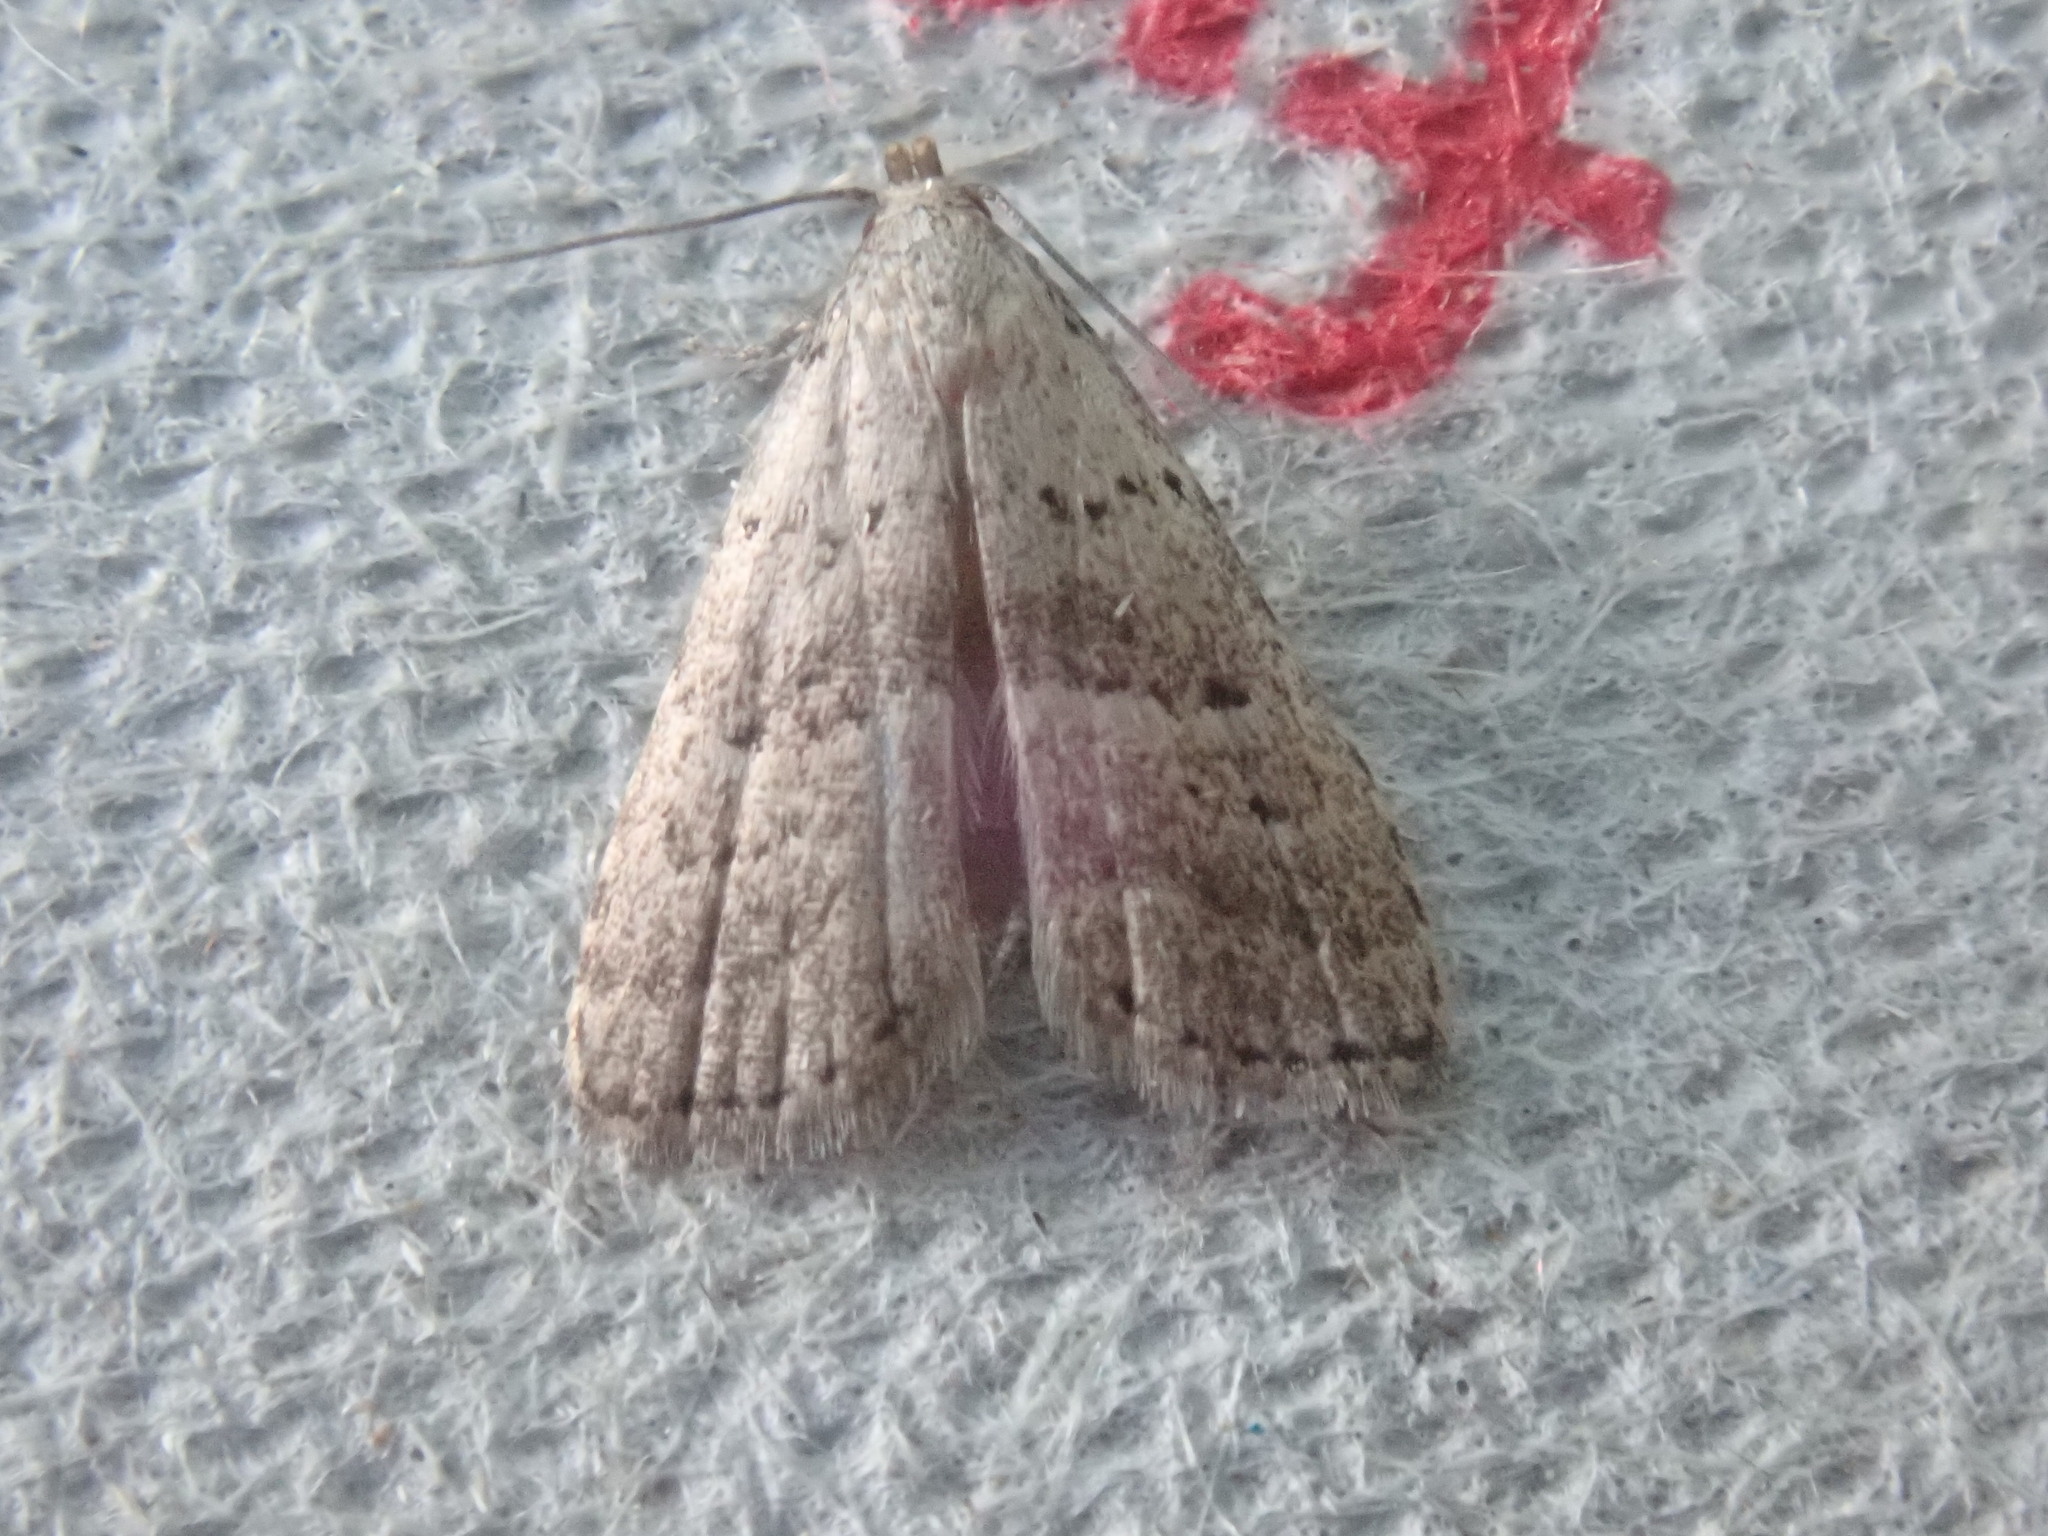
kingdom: Animalia
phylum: Arthropoda
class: Insecta
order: Lepidoptera
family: Erebidae
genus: Hypenodes
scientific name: Hypenodes fractilinea
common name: Broken-line hypenodes moth
